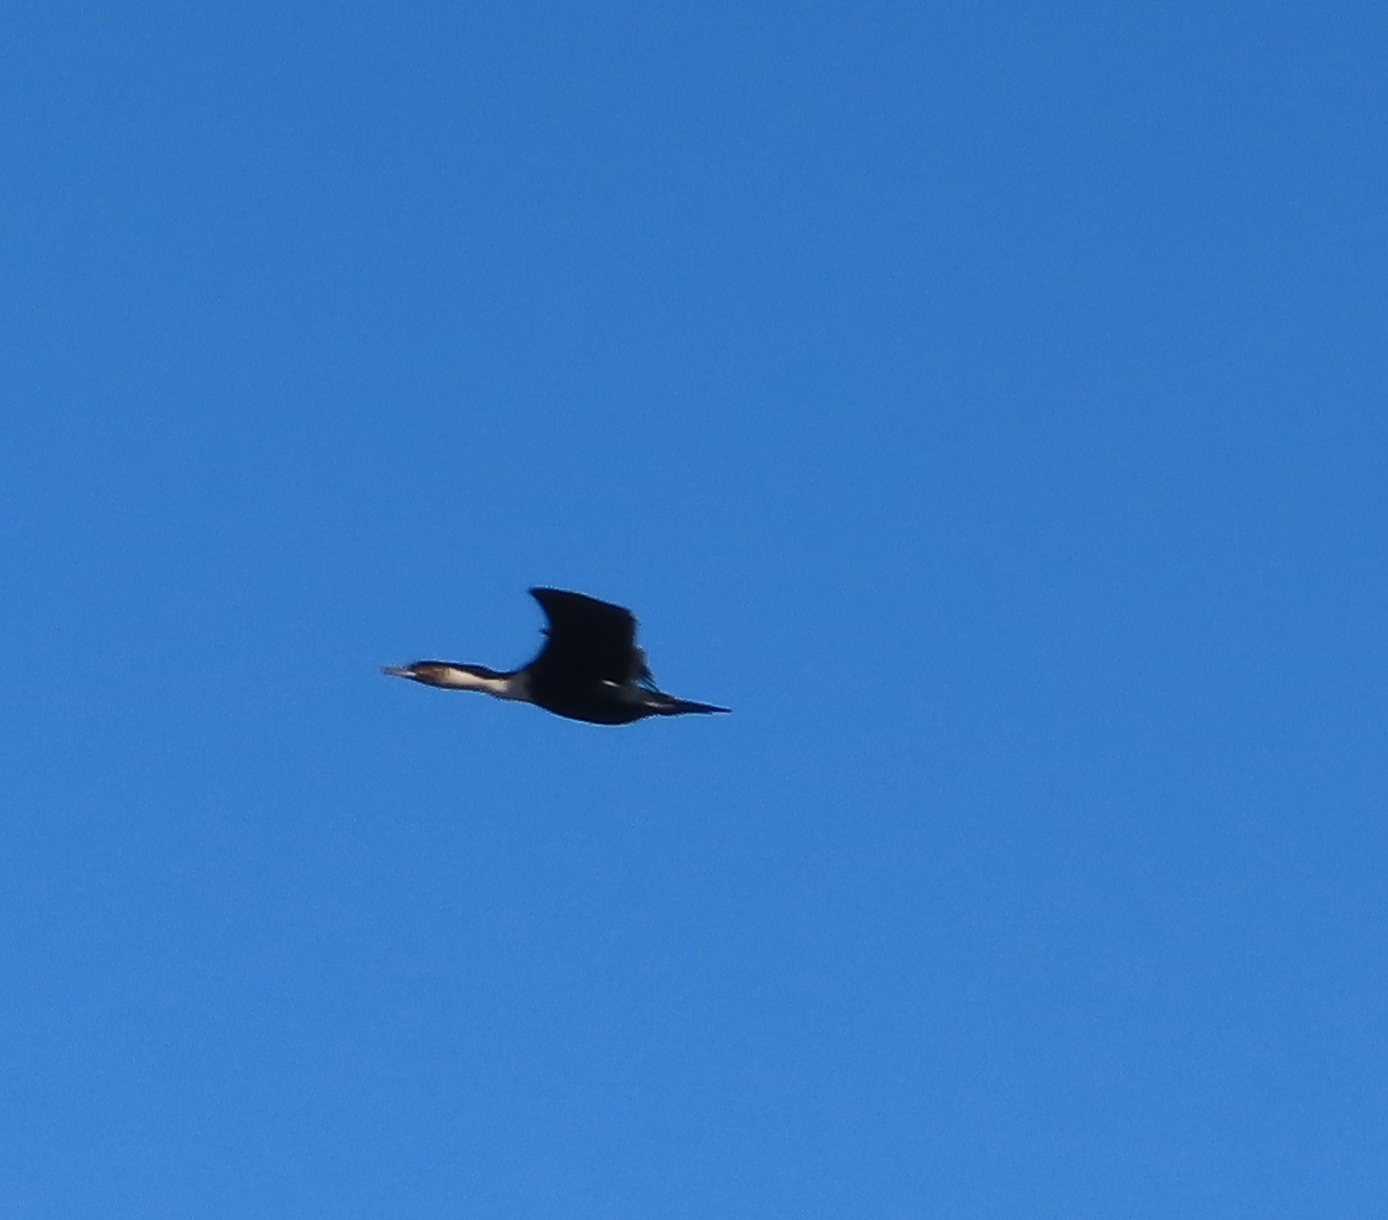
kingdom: Animalia
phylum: Chordata
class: Aves
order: Suliformes
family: Phalacrocoracidae
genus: Phalacrocorax
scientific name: Phalacrocorax carbo
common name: Great cormorant
